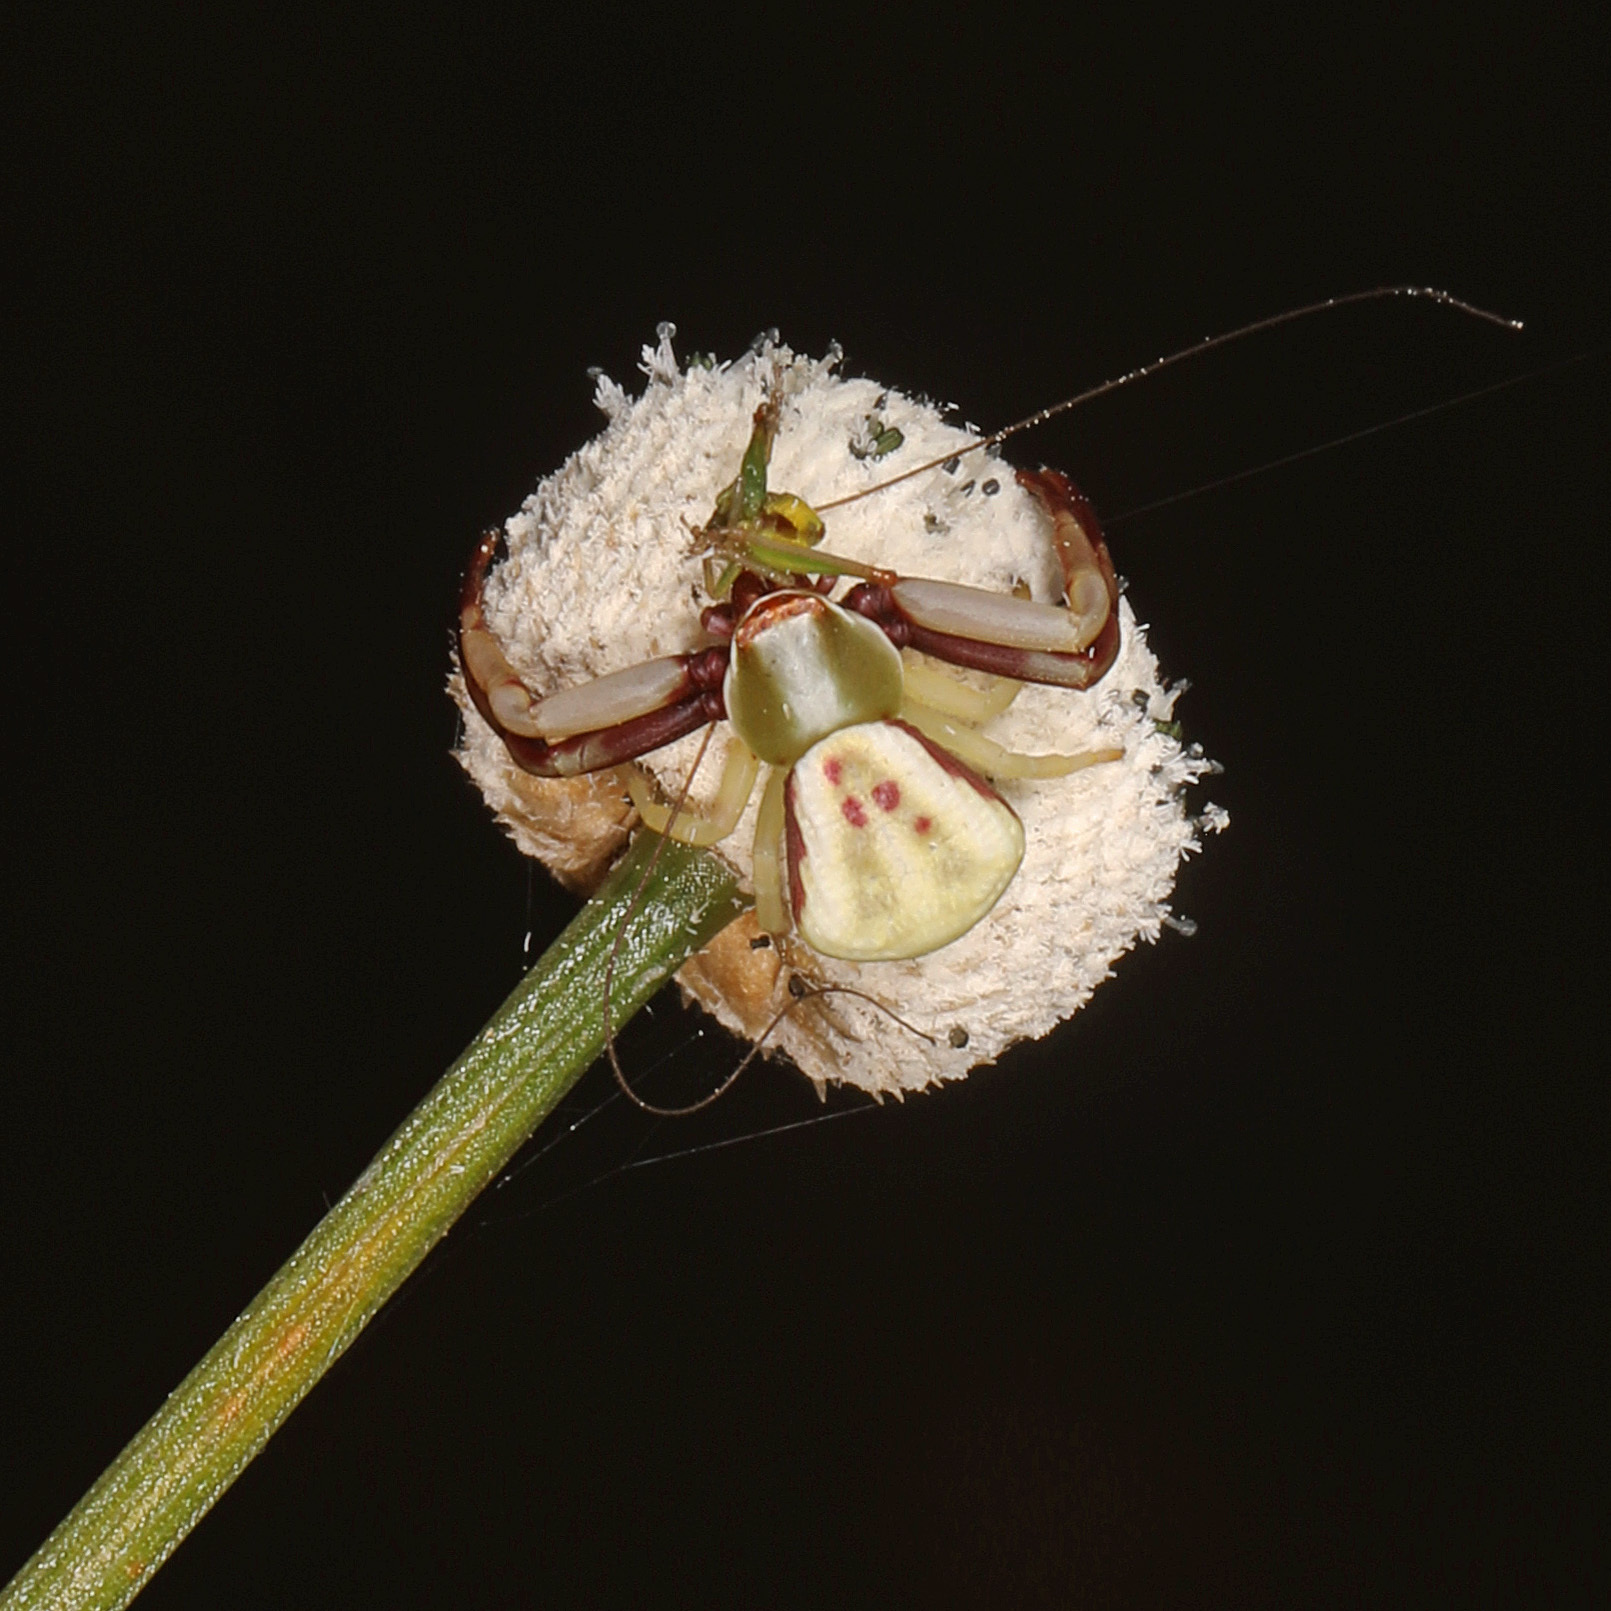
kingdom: Animalia
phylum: Arthropoda
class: Arachnida
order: Araneae
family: Thomisidae
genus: Misumenoides
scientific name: Misumenoides formosipes
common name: White-banded crab spider
